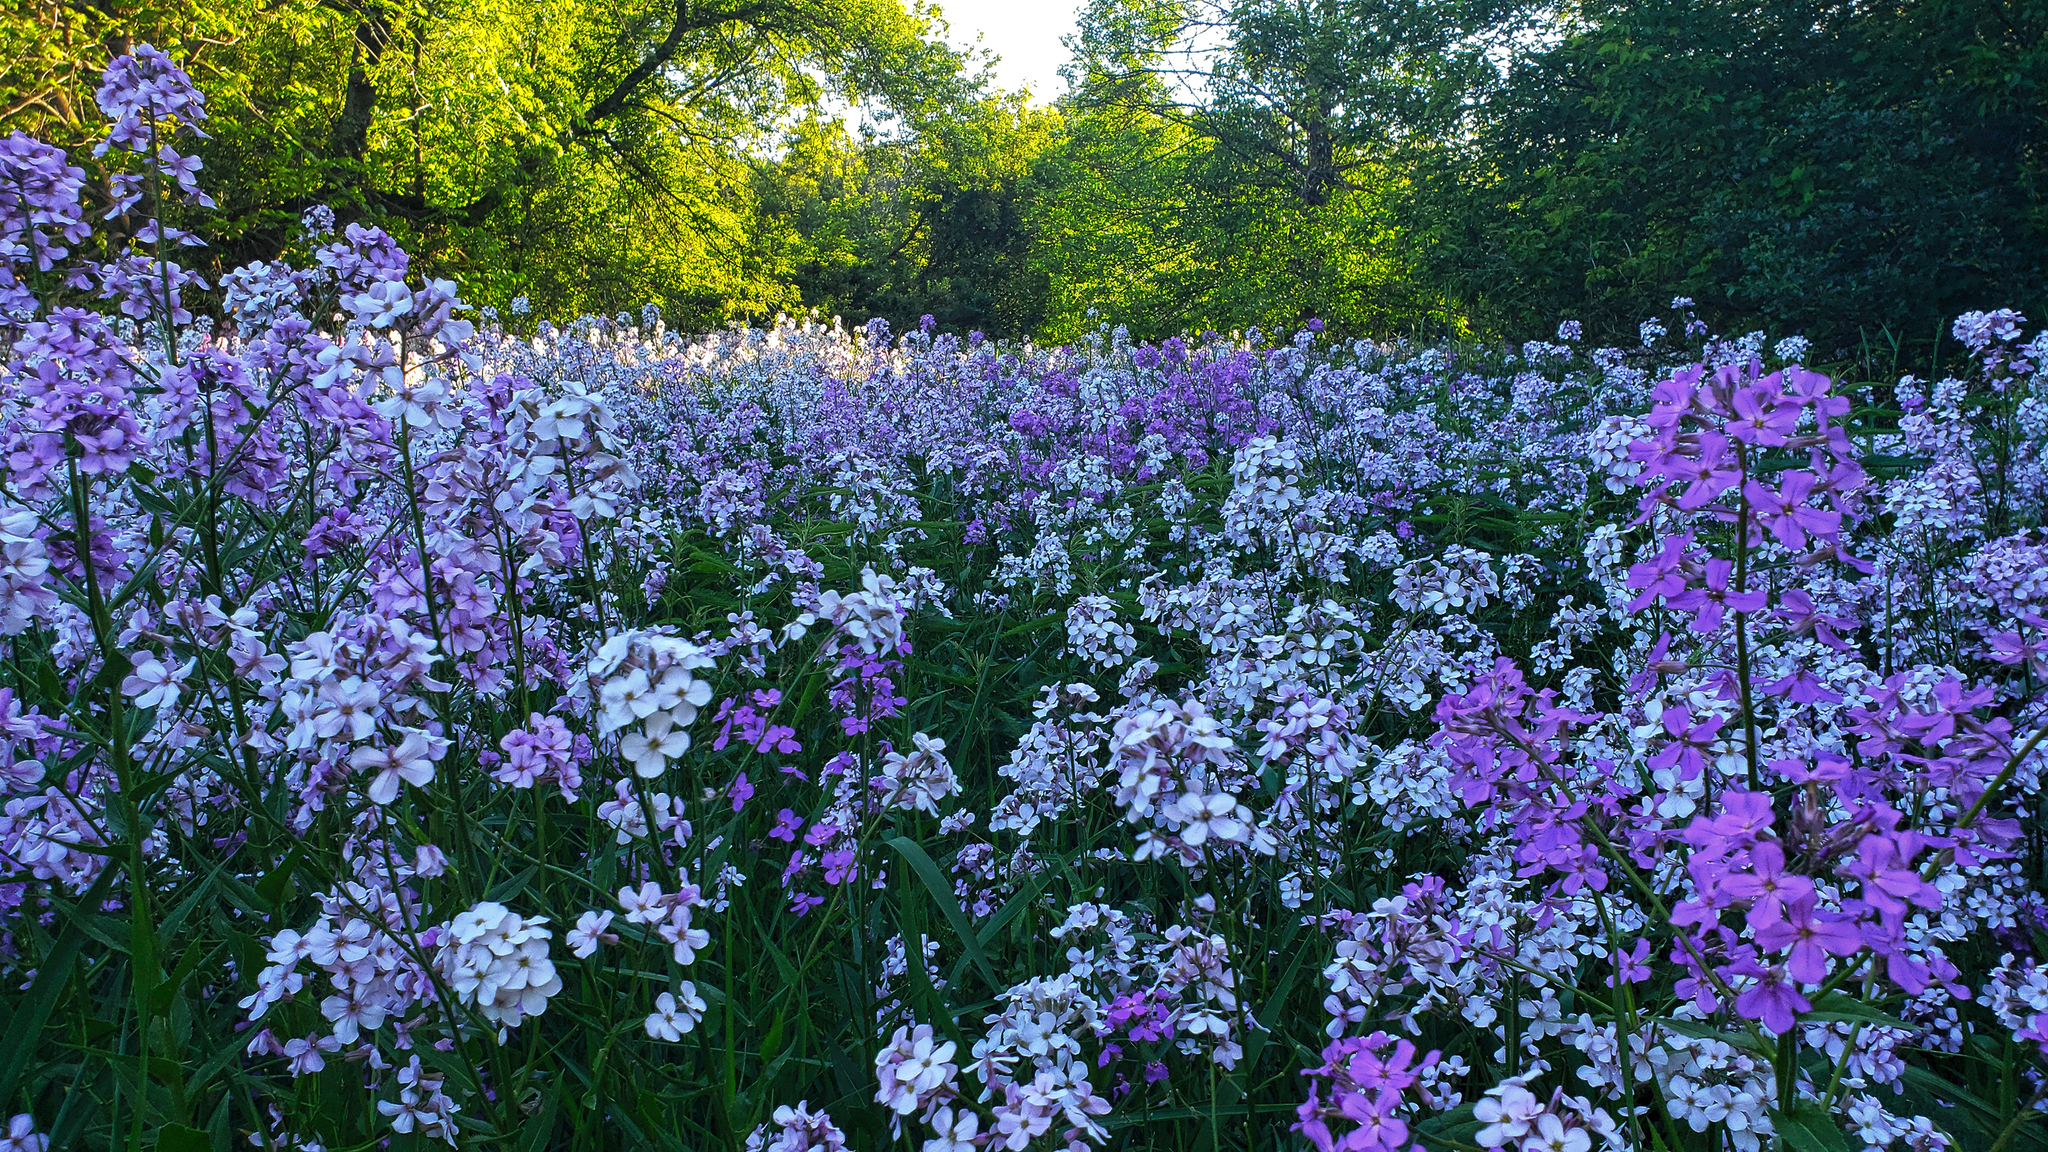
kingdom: Plantae
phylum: Tracheophyta
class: Magnoliopsida
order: Brassicales
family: Brassicaceae
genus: Hesperis
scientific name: Hesperis matronalis
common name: Dame's-violet
